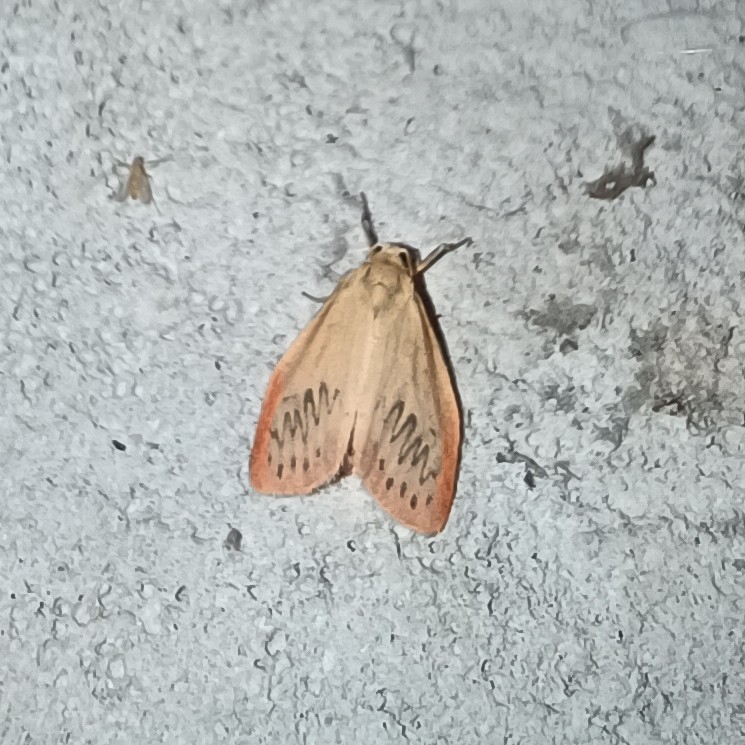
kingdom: Animalia
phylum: Arthropoda
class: Insecta
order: Lepidoptera
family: Erebidae
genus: Miltochrista
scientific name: Miltochrista miniata
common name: Rosy footman
